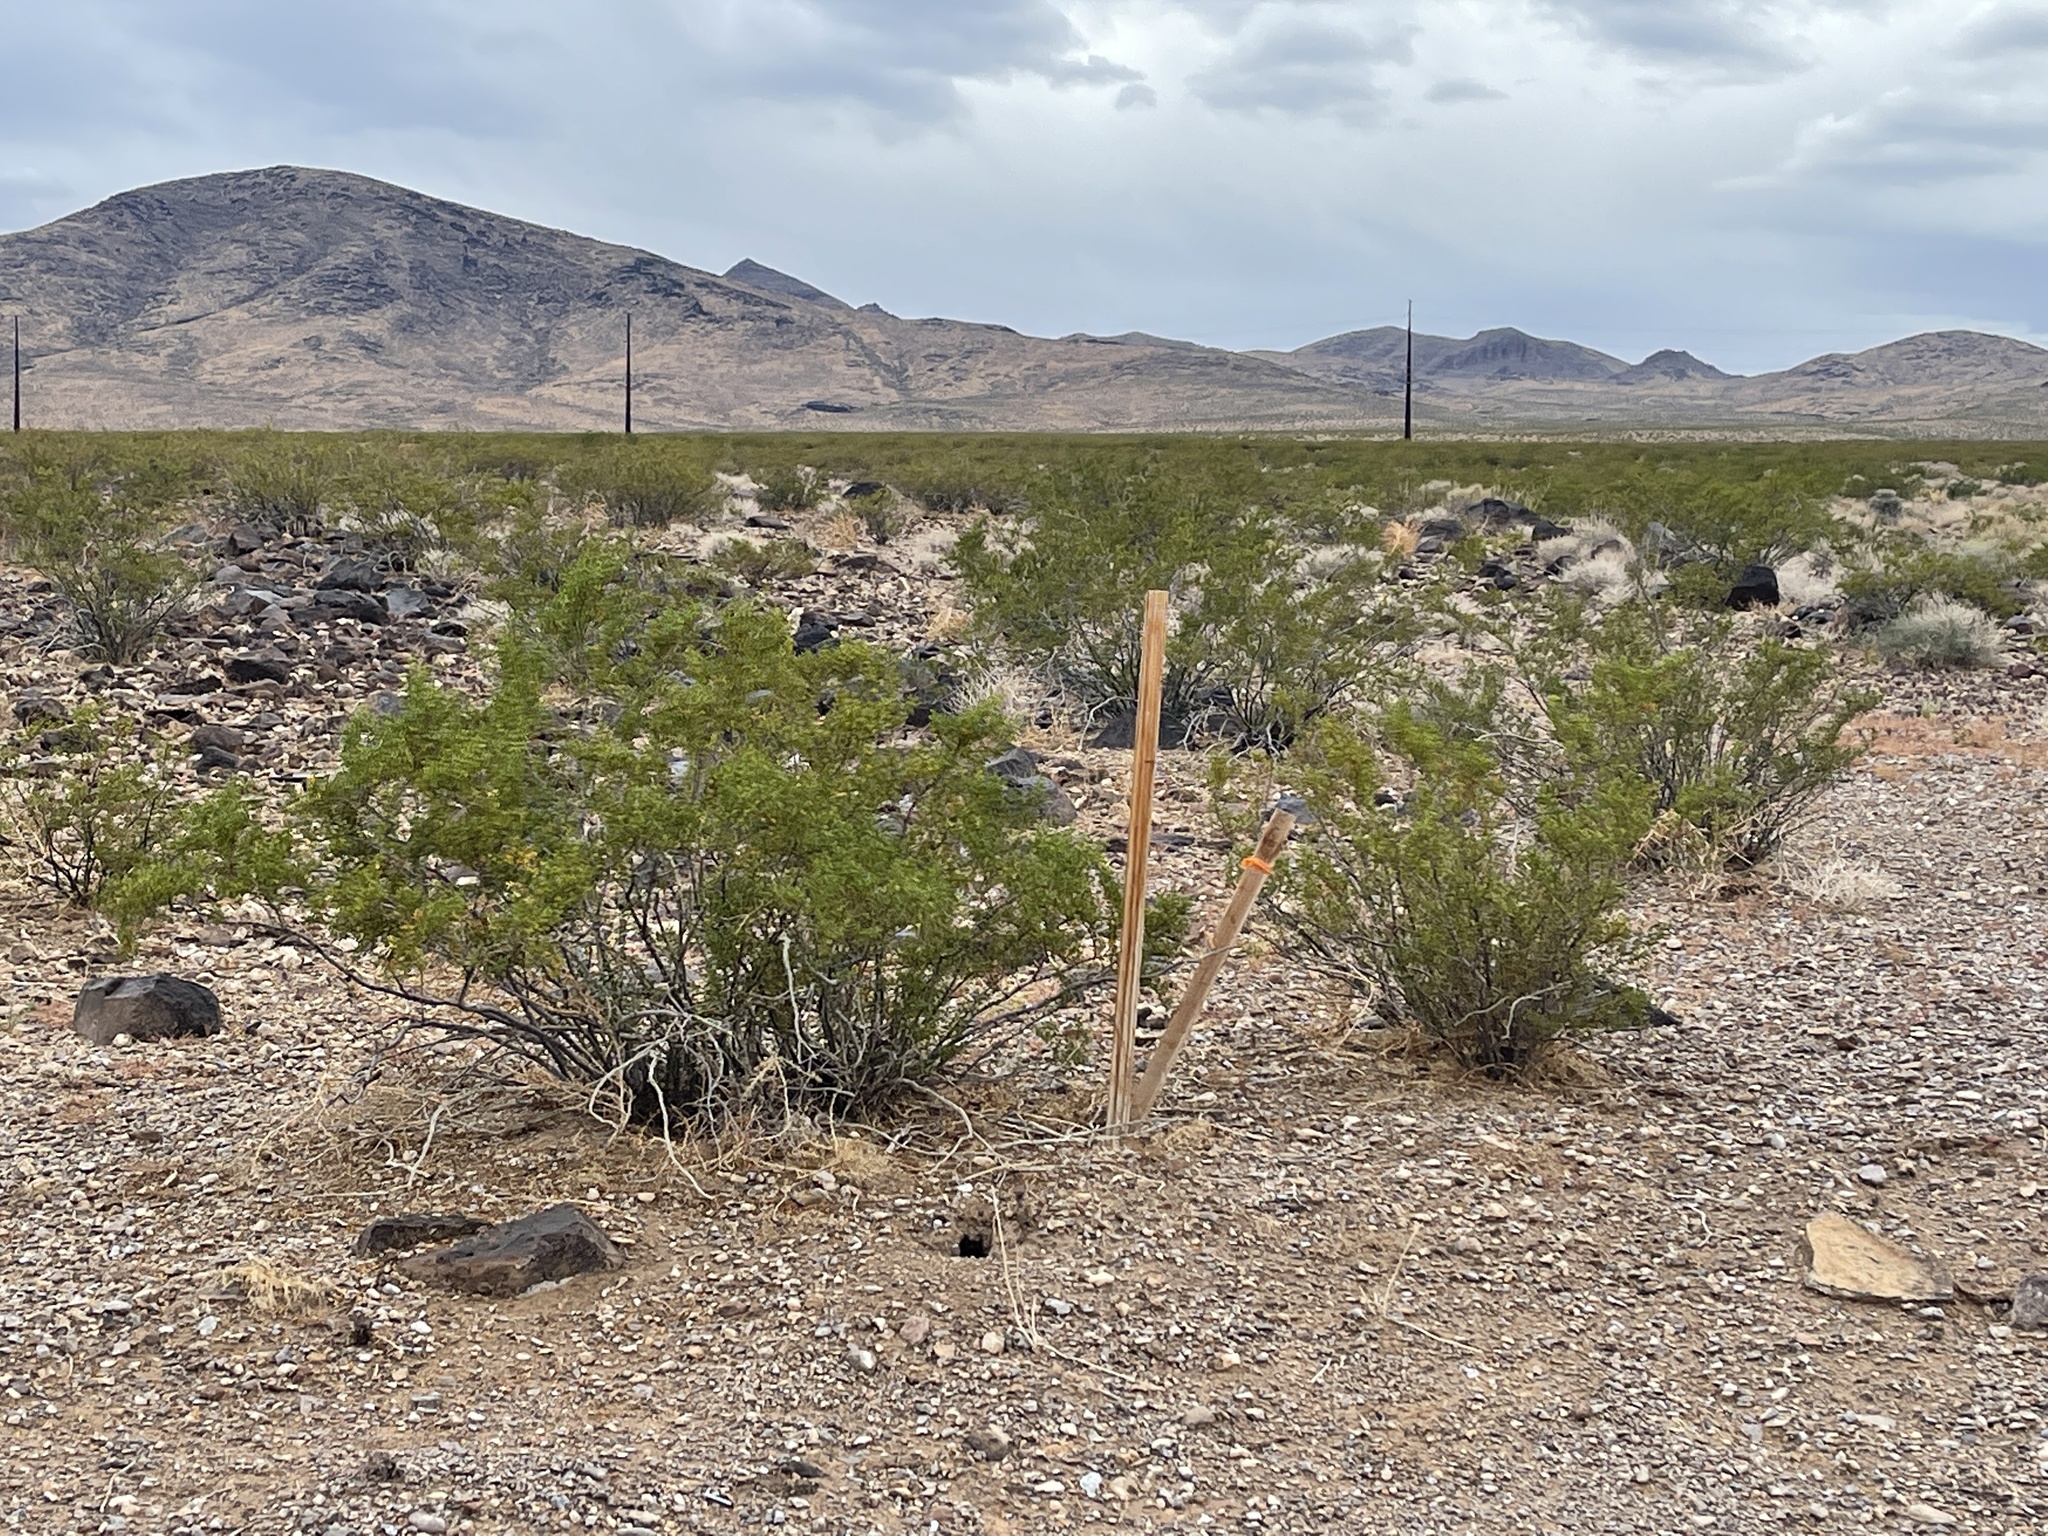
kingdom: Plantae
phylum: Tracheophyta
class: Magnoliopsida
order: Zygophyllales
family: Zygophyllaceae
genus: Larrea
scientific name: Larrea tridentata
